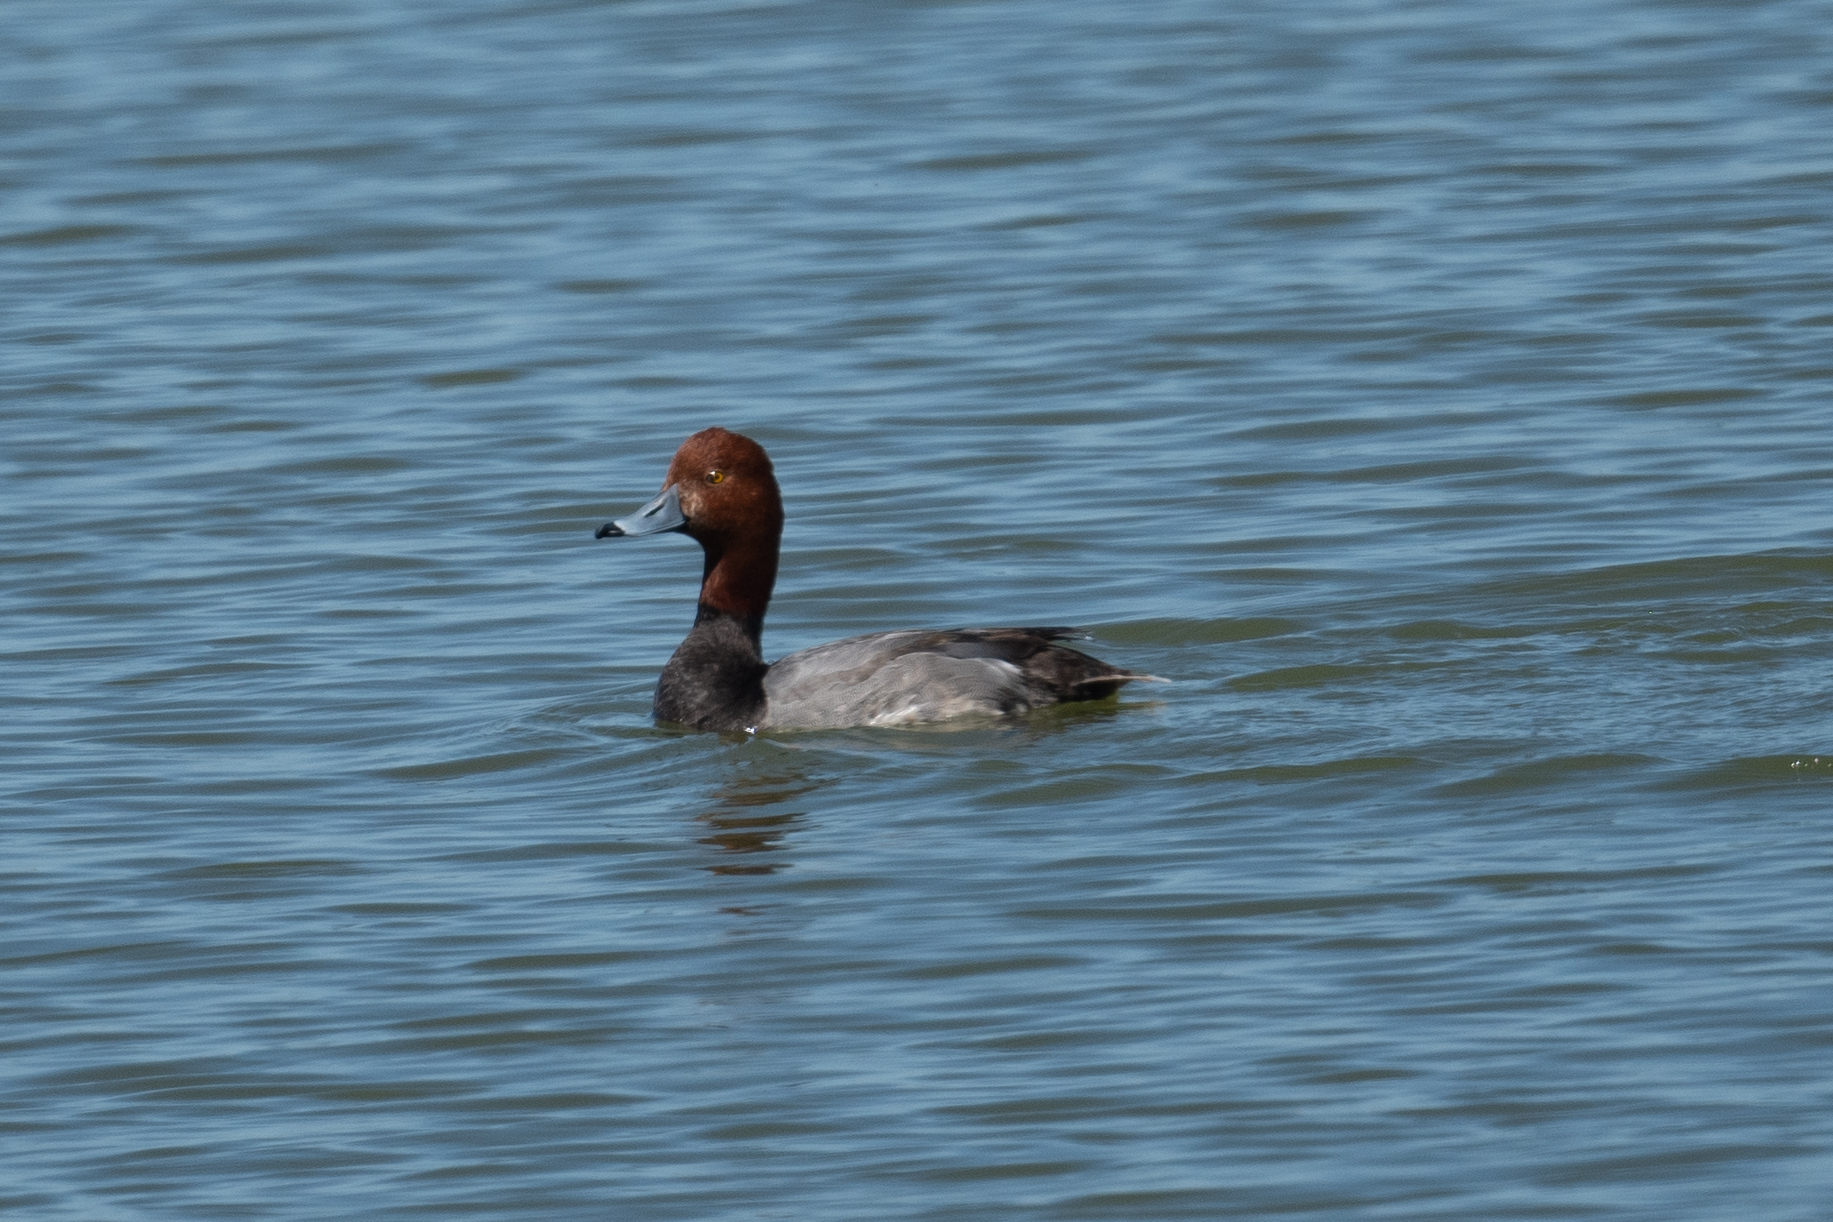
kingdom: Animalia
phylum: Chordata
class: Aves
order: Anseriformes
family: Anatidae
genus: Aythya
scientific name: Aythya americana
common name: Redhead
